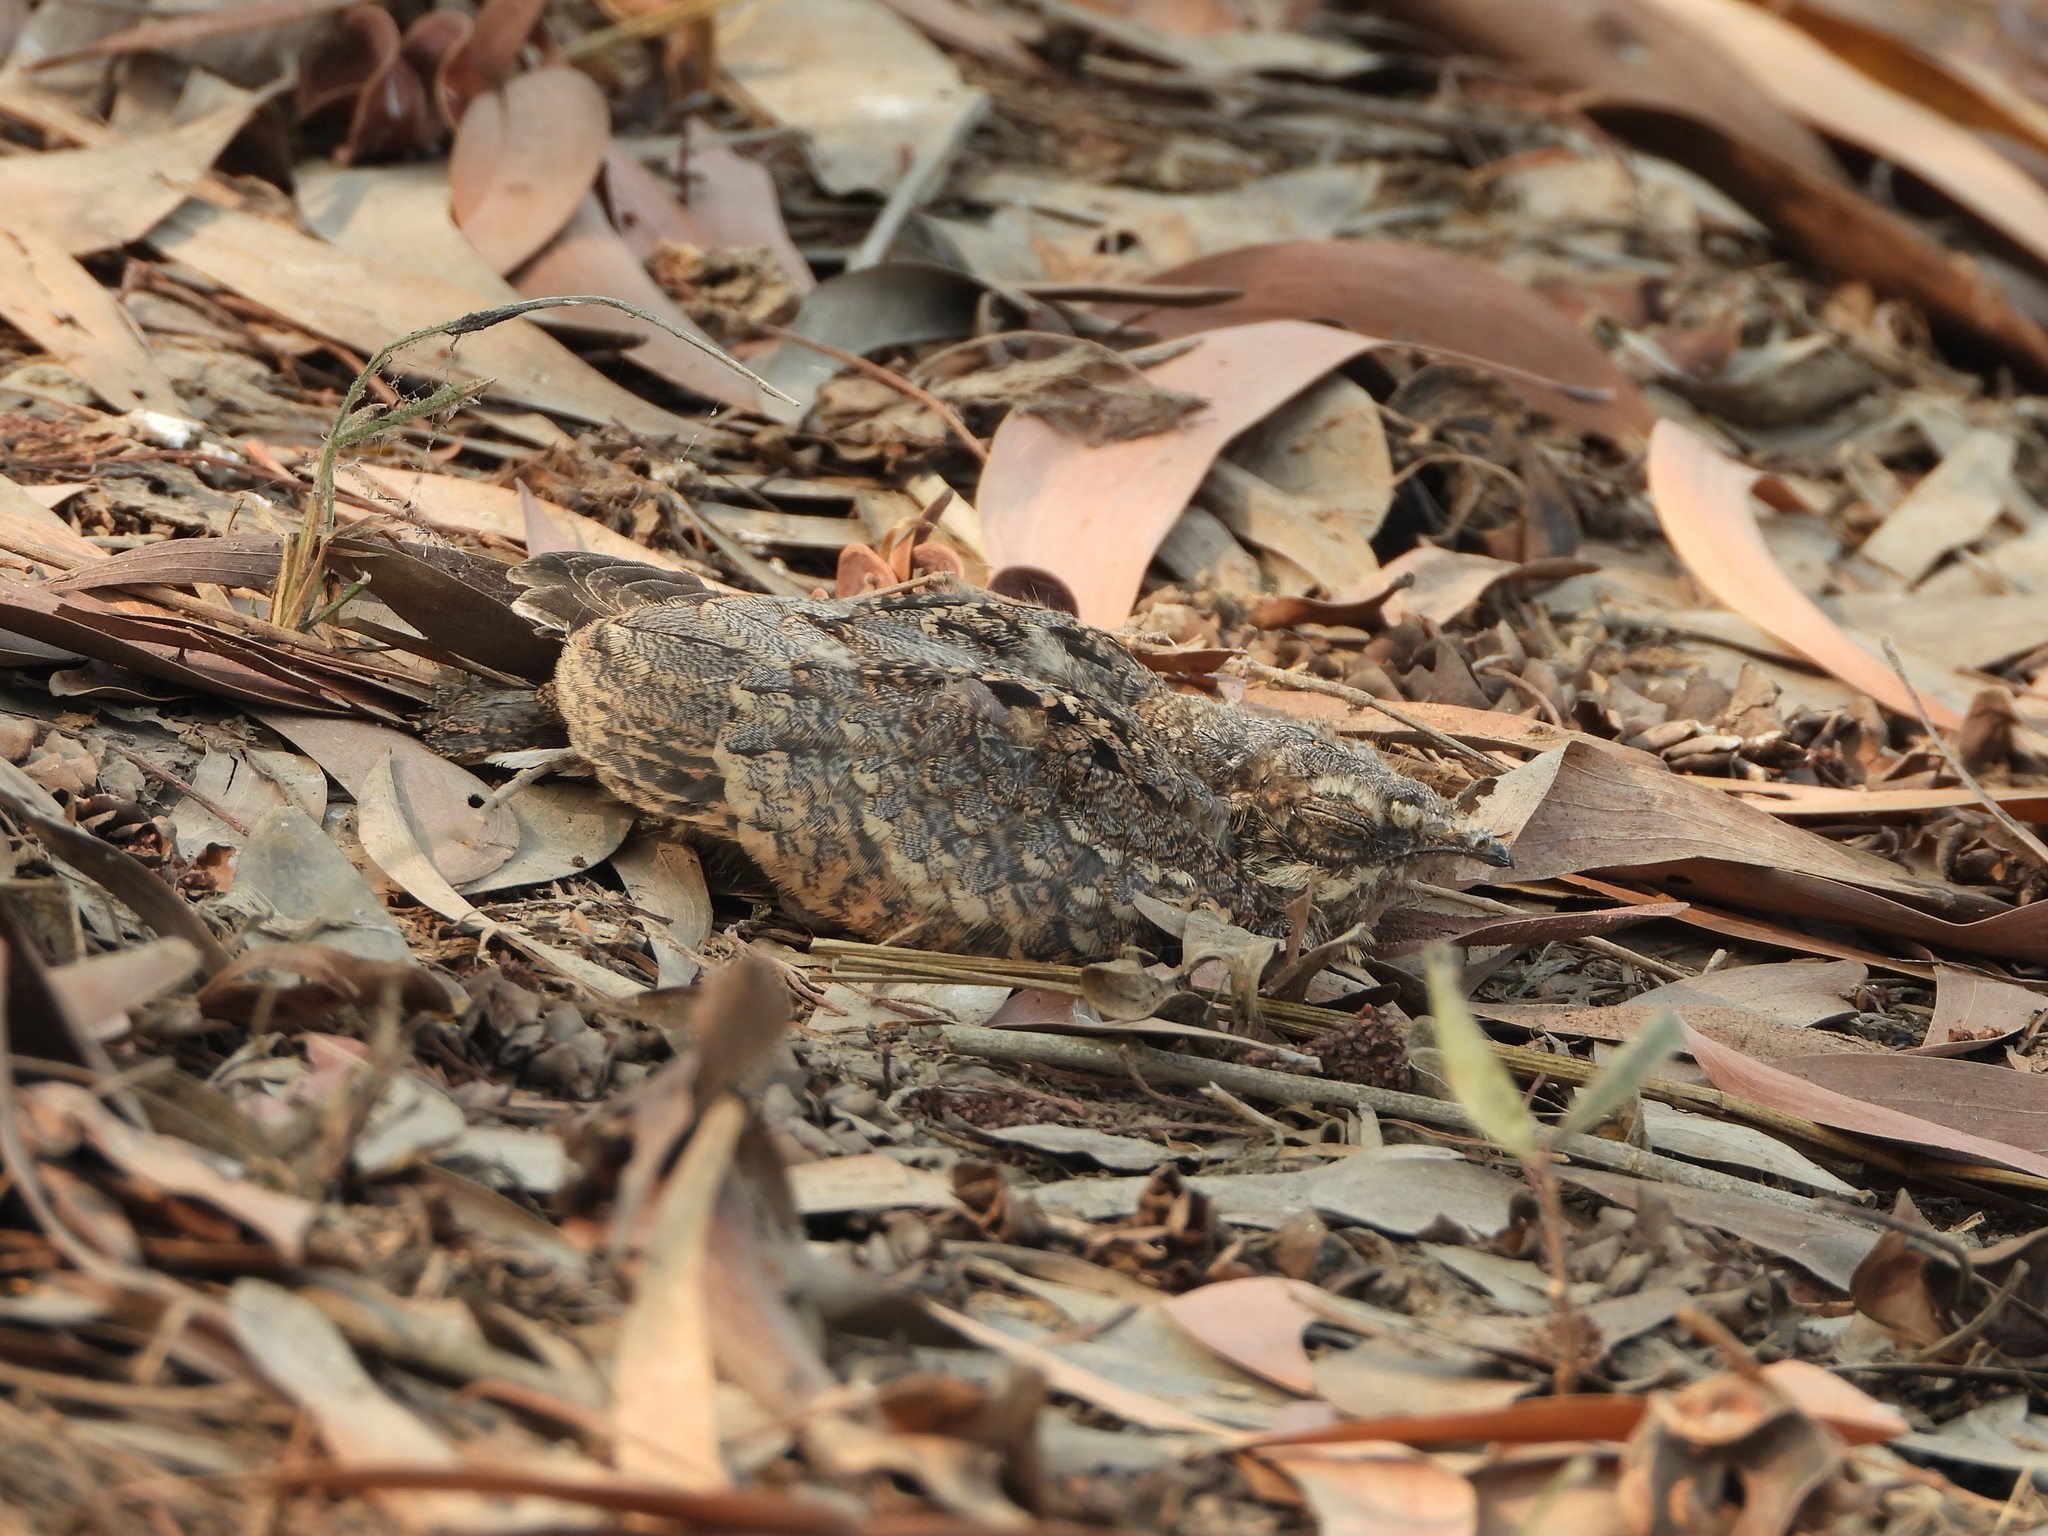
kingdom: Animalia
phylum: Chordata
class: Aves
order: Caprimulgiformes
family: Caprimulgidae
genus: Caprimulgus
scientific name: Caprimulgus asiaticus
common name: Indian nightjar
